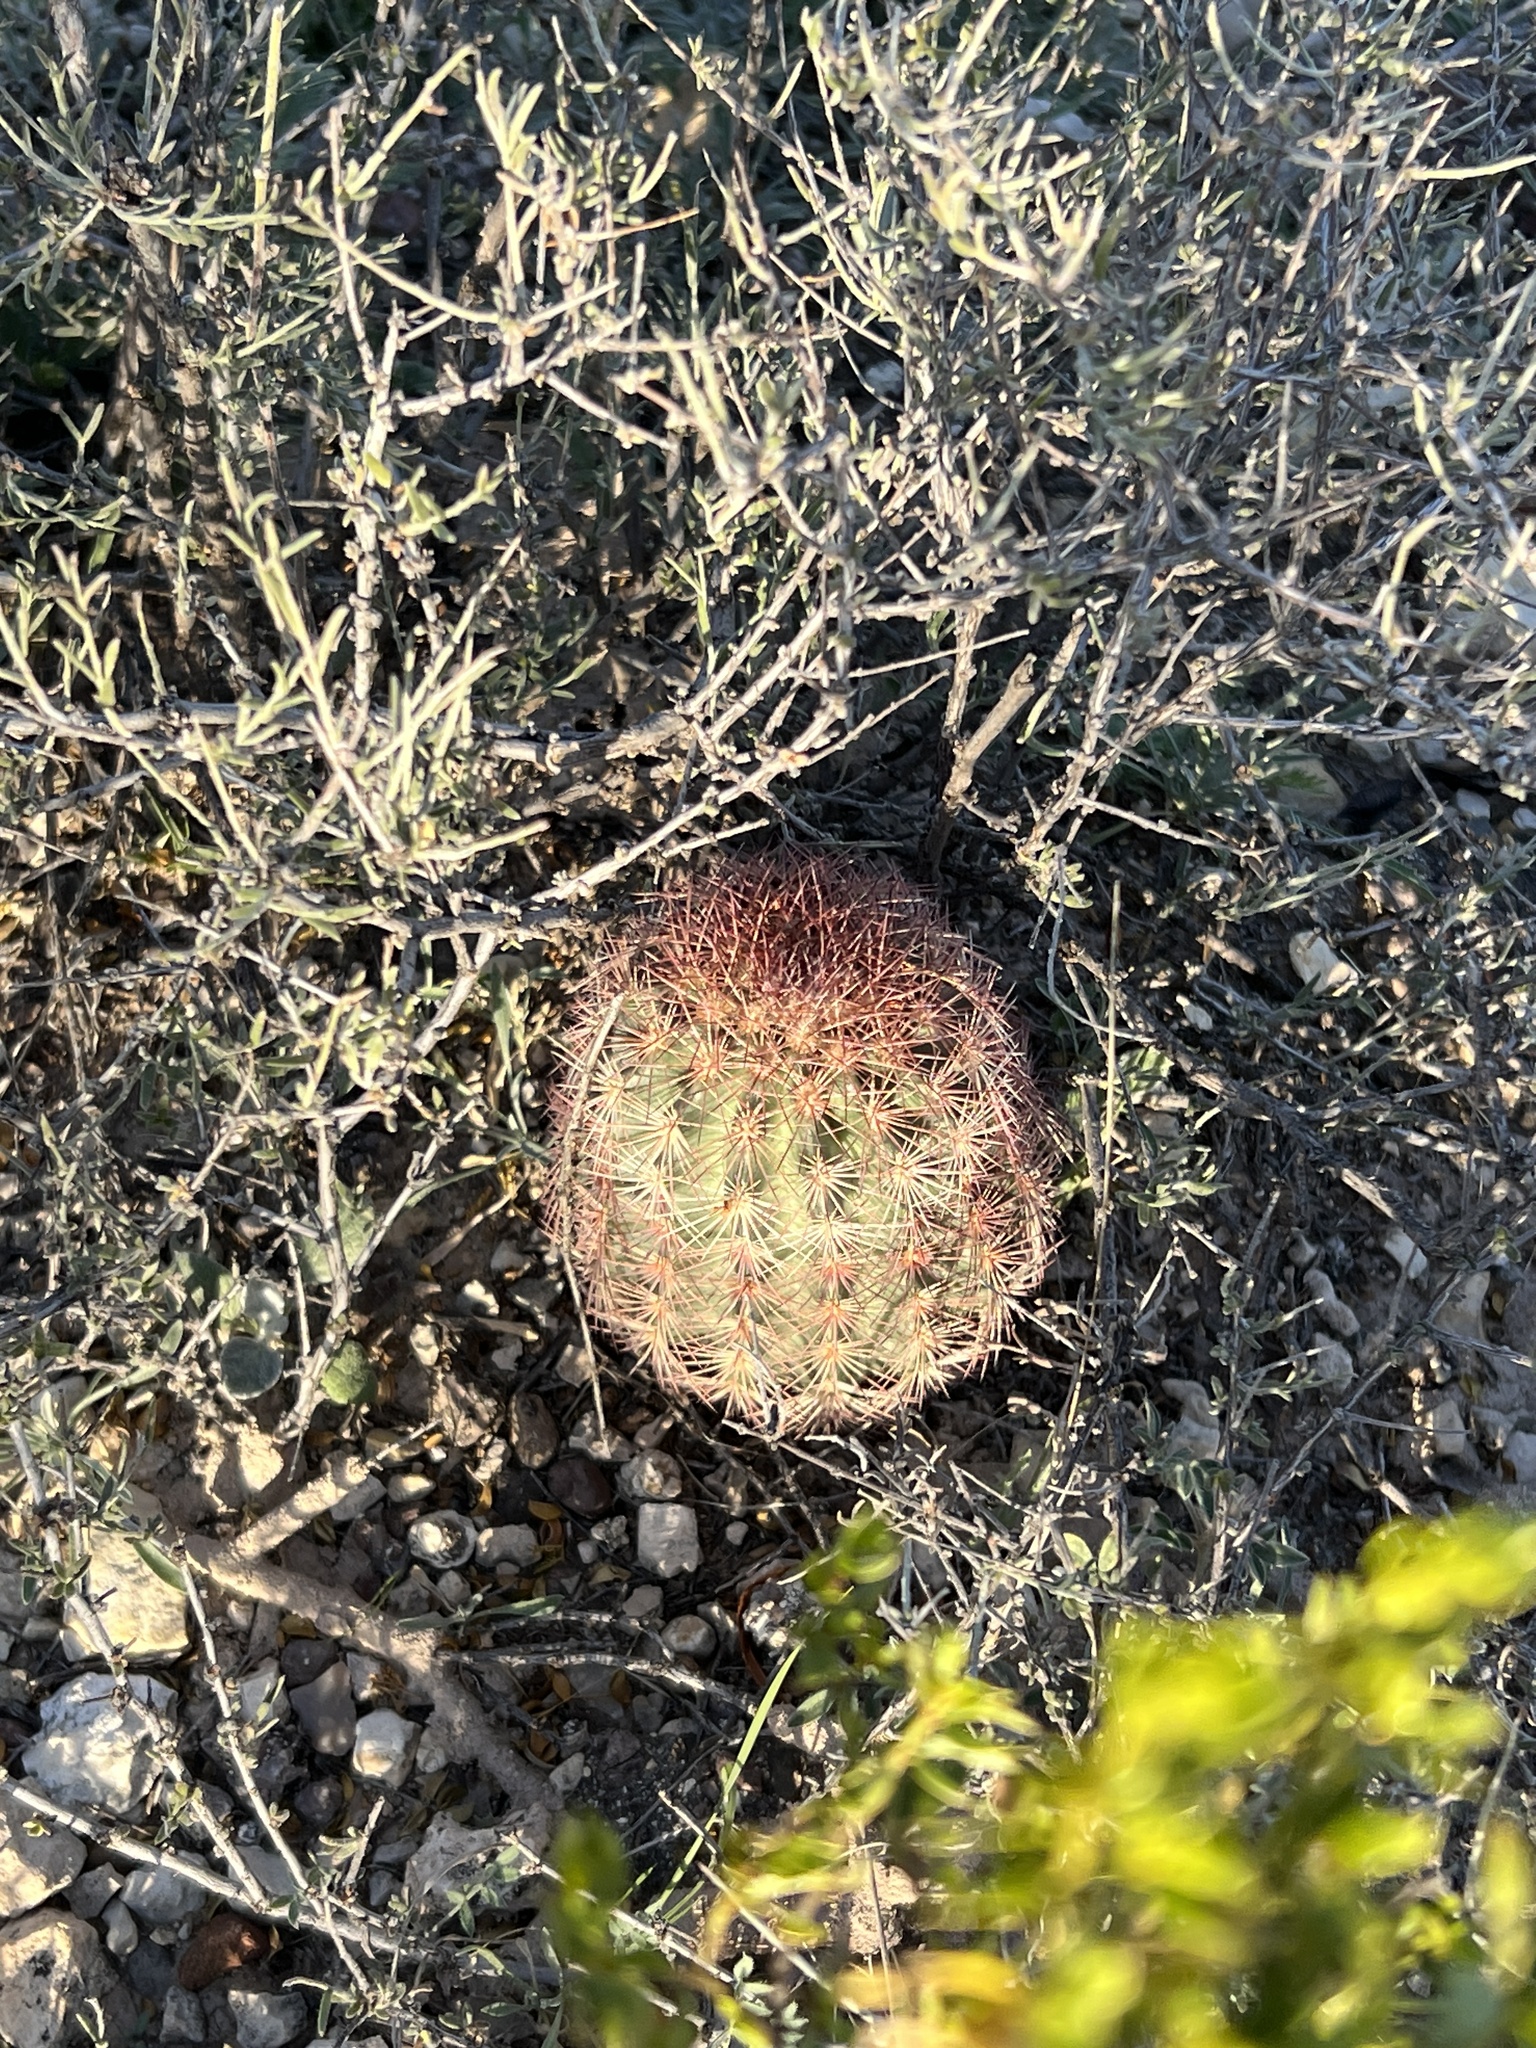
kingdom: Plantae
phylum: Tracheophyta
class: Magnoliopsida
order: Caryophyllales
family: Cactaceae
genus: Echinocereus
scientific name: Echinocereus dasyacanthus
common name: Spiny hedgehog cactus
